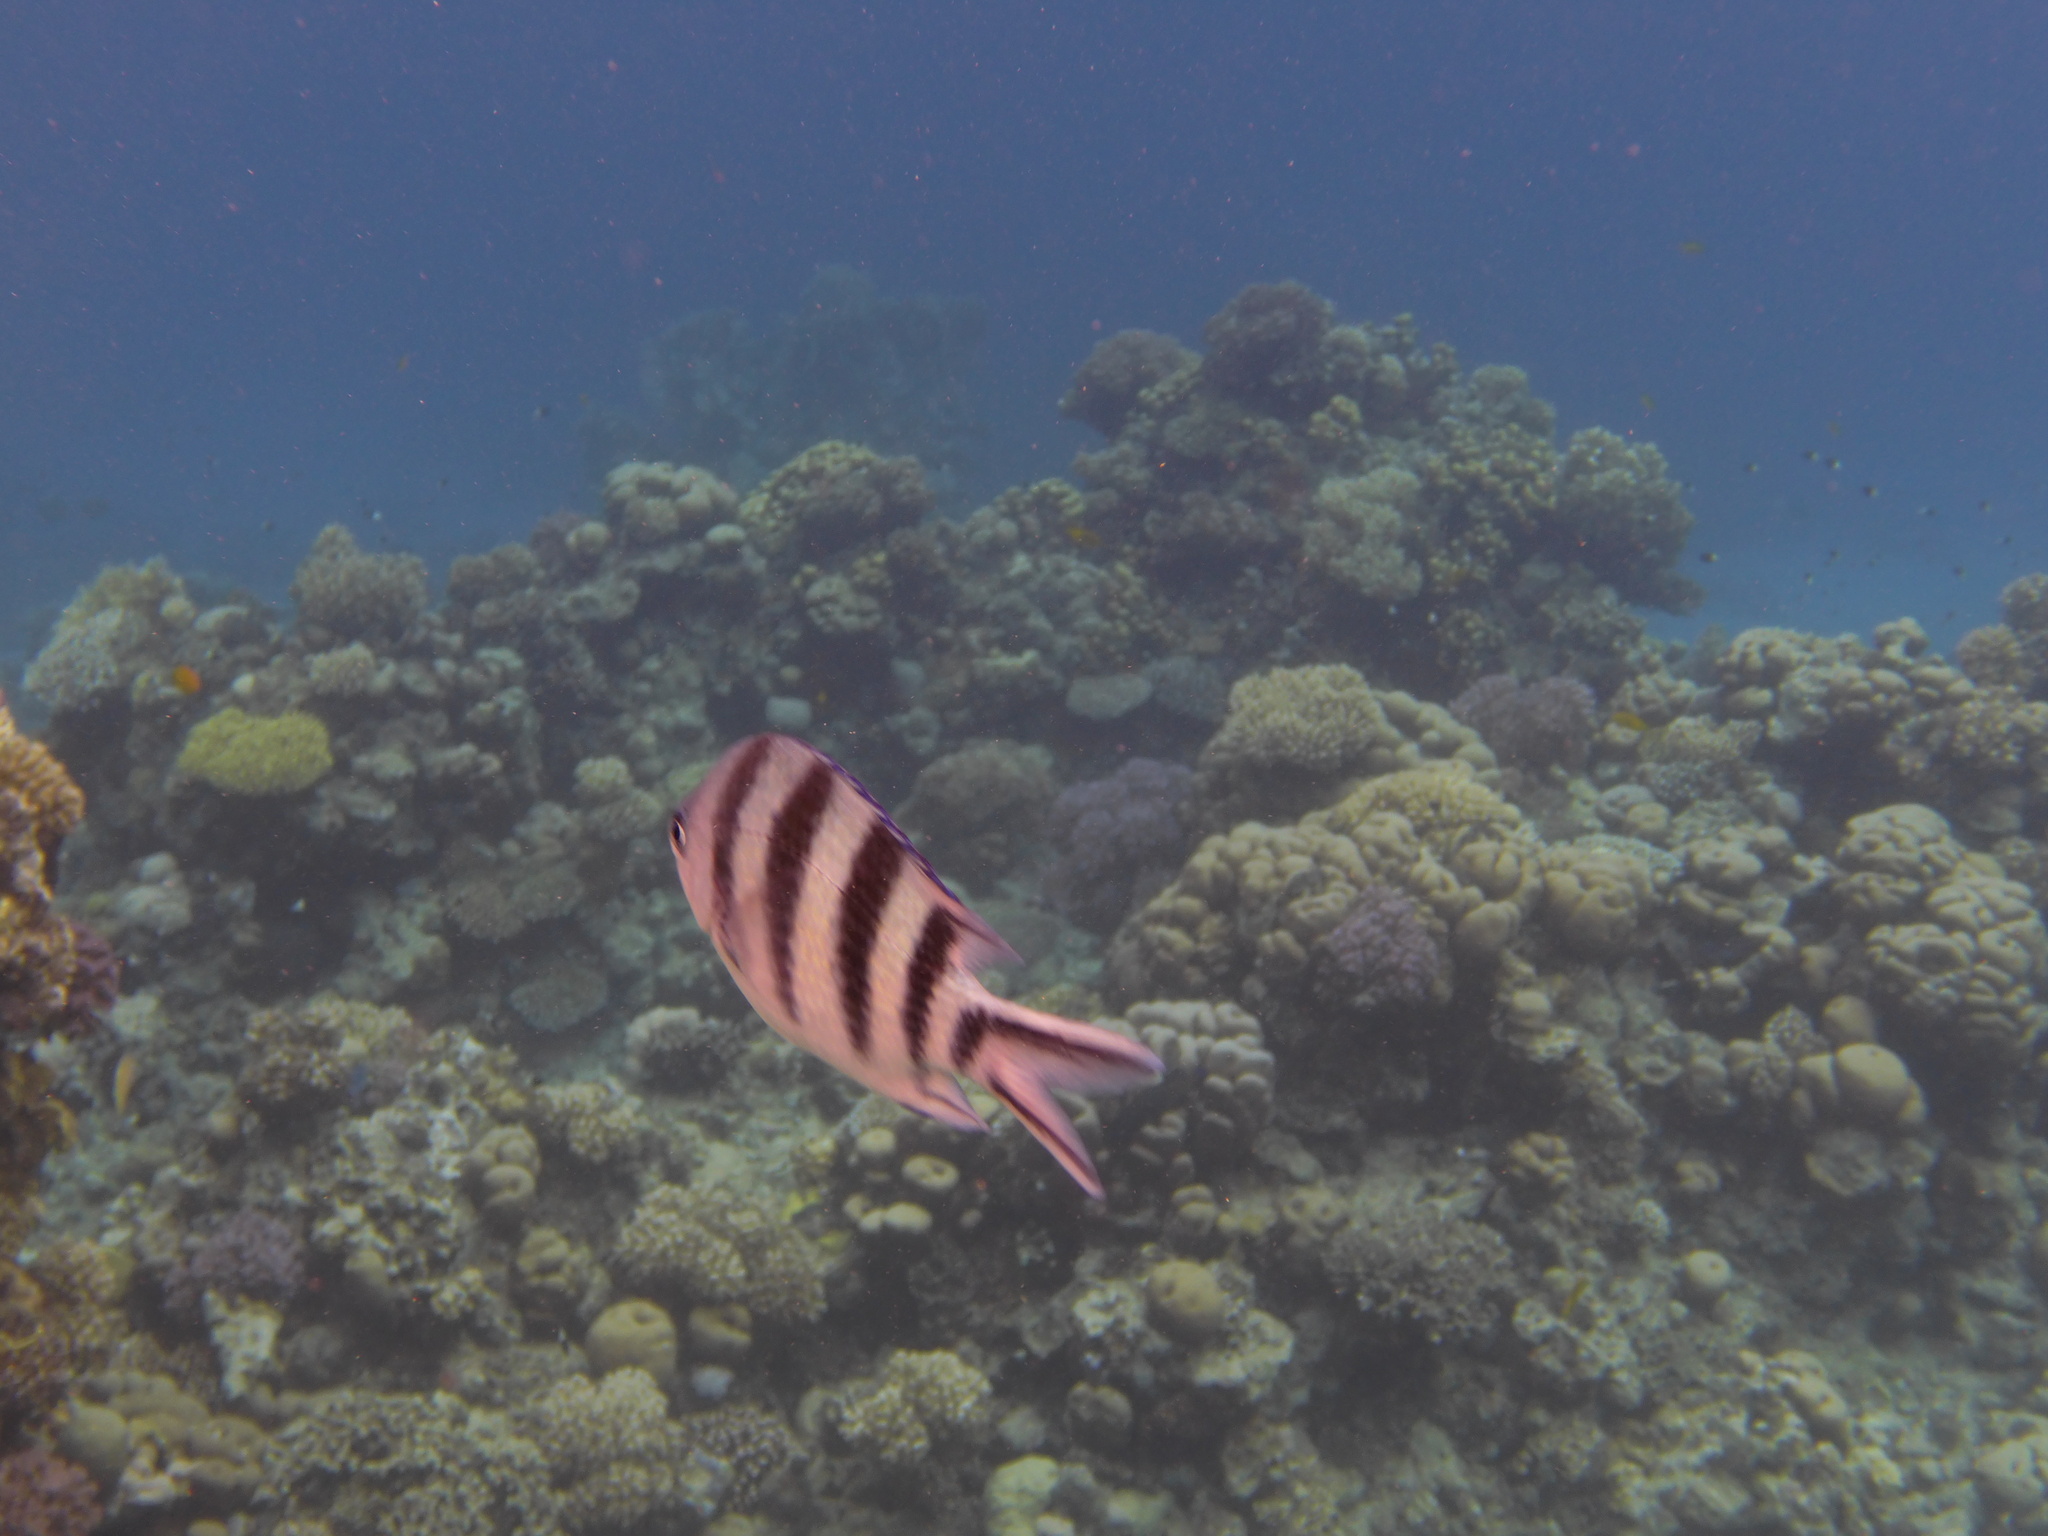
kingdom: Animalia
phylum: Chordata
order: Perciformes
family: Pomacentridae
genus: Abudefduf
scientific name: Abudefduf sexfasciatus
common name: Scissortail sergeant
